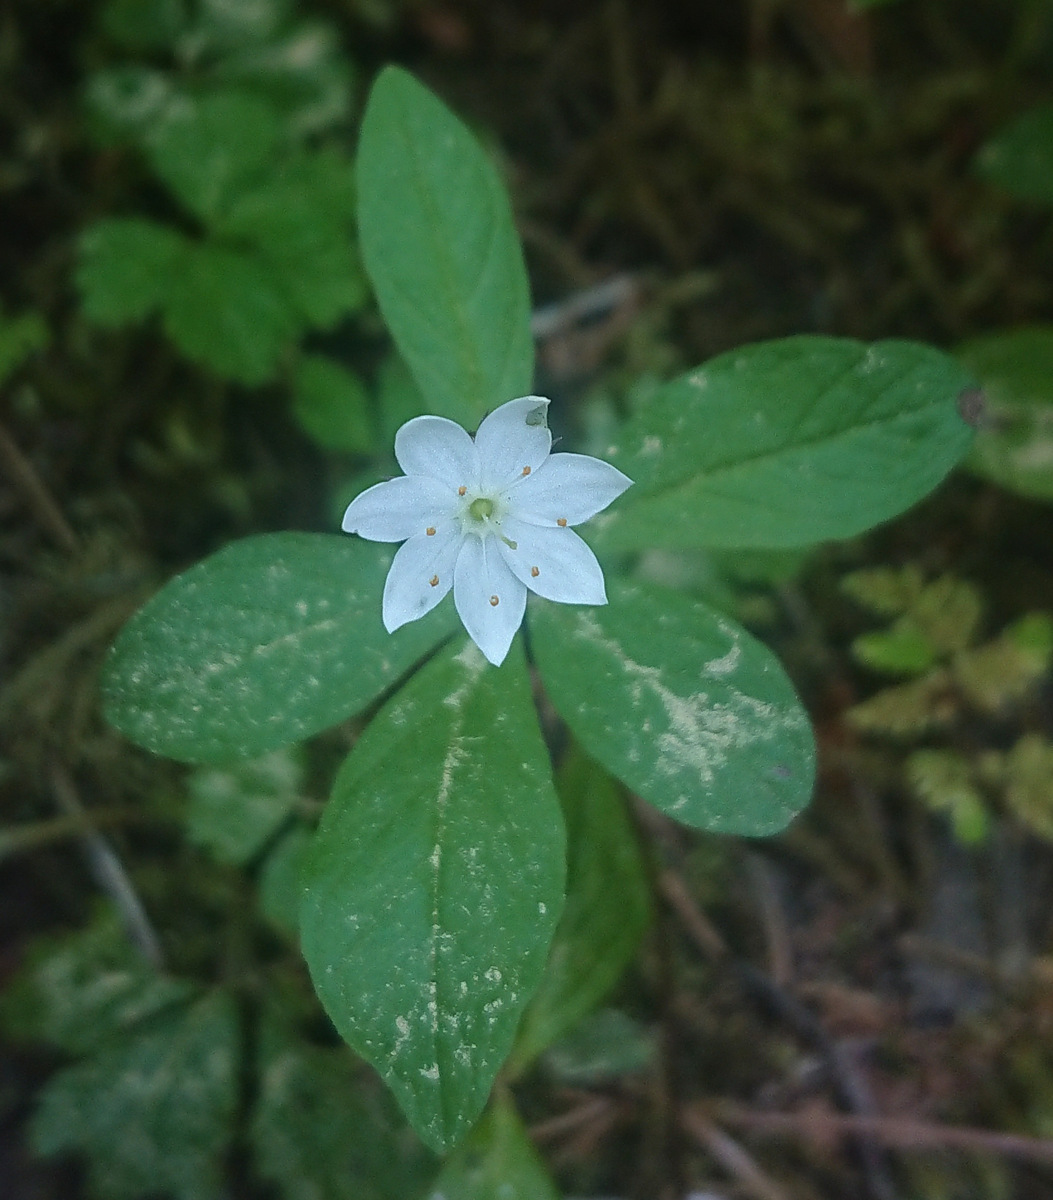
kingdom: Plantae
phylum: Tracheophyta
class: Magnoliopsida
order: Ericales
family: Primulaceae
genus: Lysimachia
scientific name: Lysimachia europaea
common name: Arctic starflower
